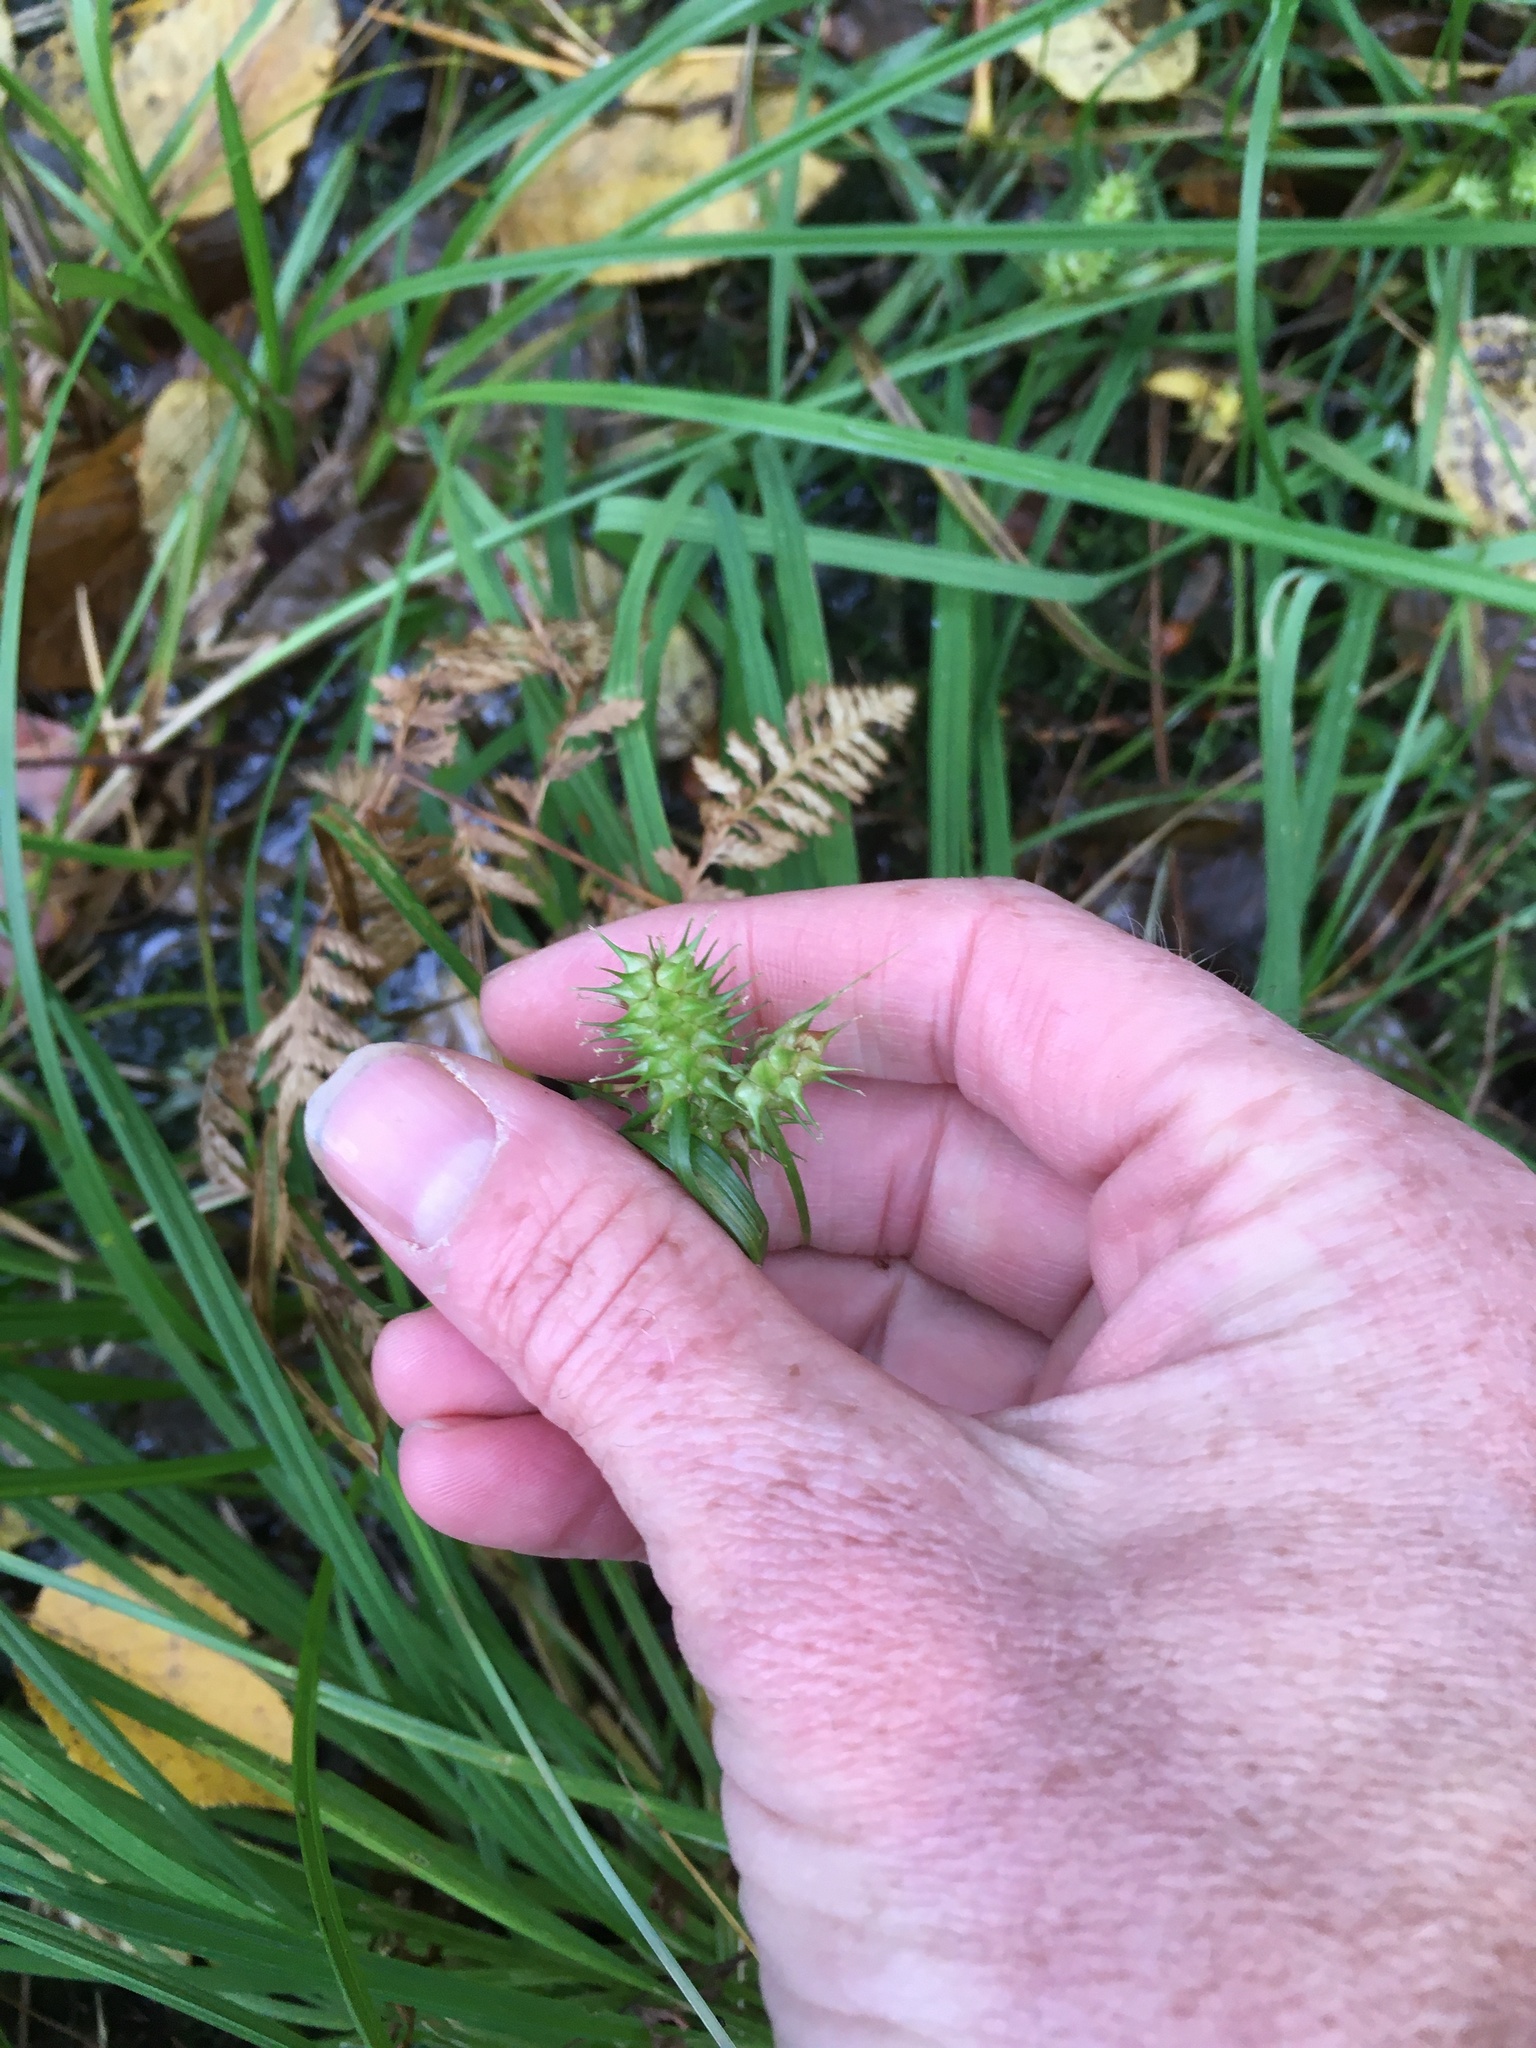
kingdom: Plantae
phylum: Tracheophyta
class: Liliopsida
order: Poales
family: Cyperaceae
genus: Carex
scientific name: Carex lurida
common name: Sallow sedge
